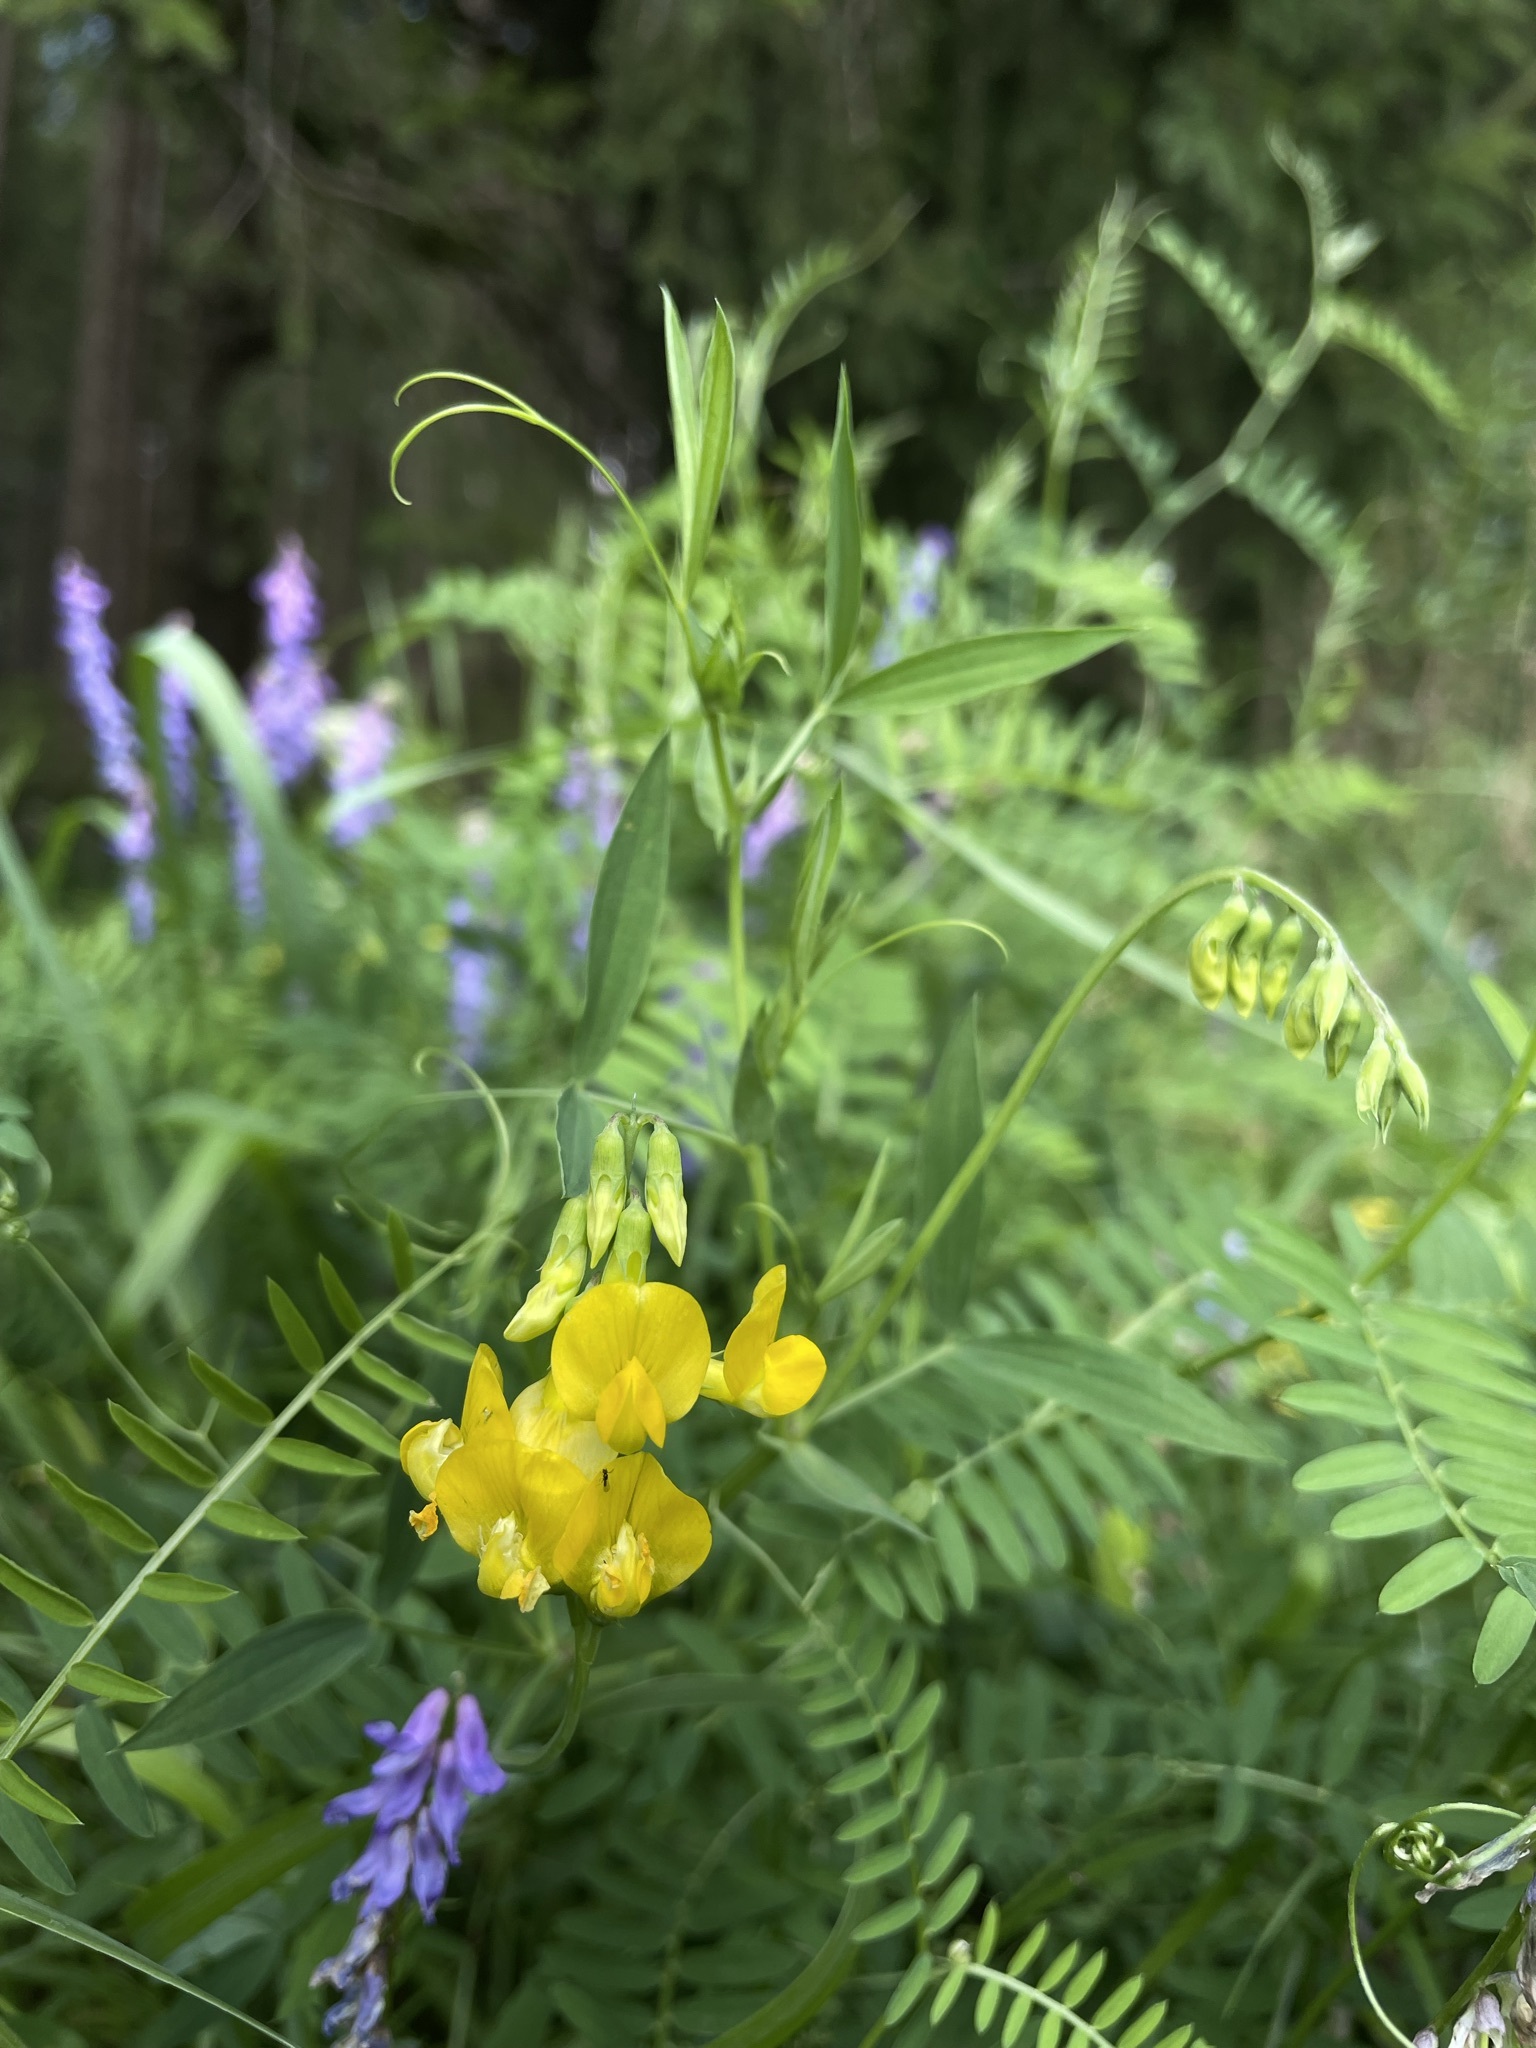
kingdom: Plantae
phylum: Tracheophyta
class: Magnoliopsida
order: Fabales
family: Fabaceae
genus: Lathyrus
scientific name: Lathyrus pratensis
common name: Meadow vetchling
